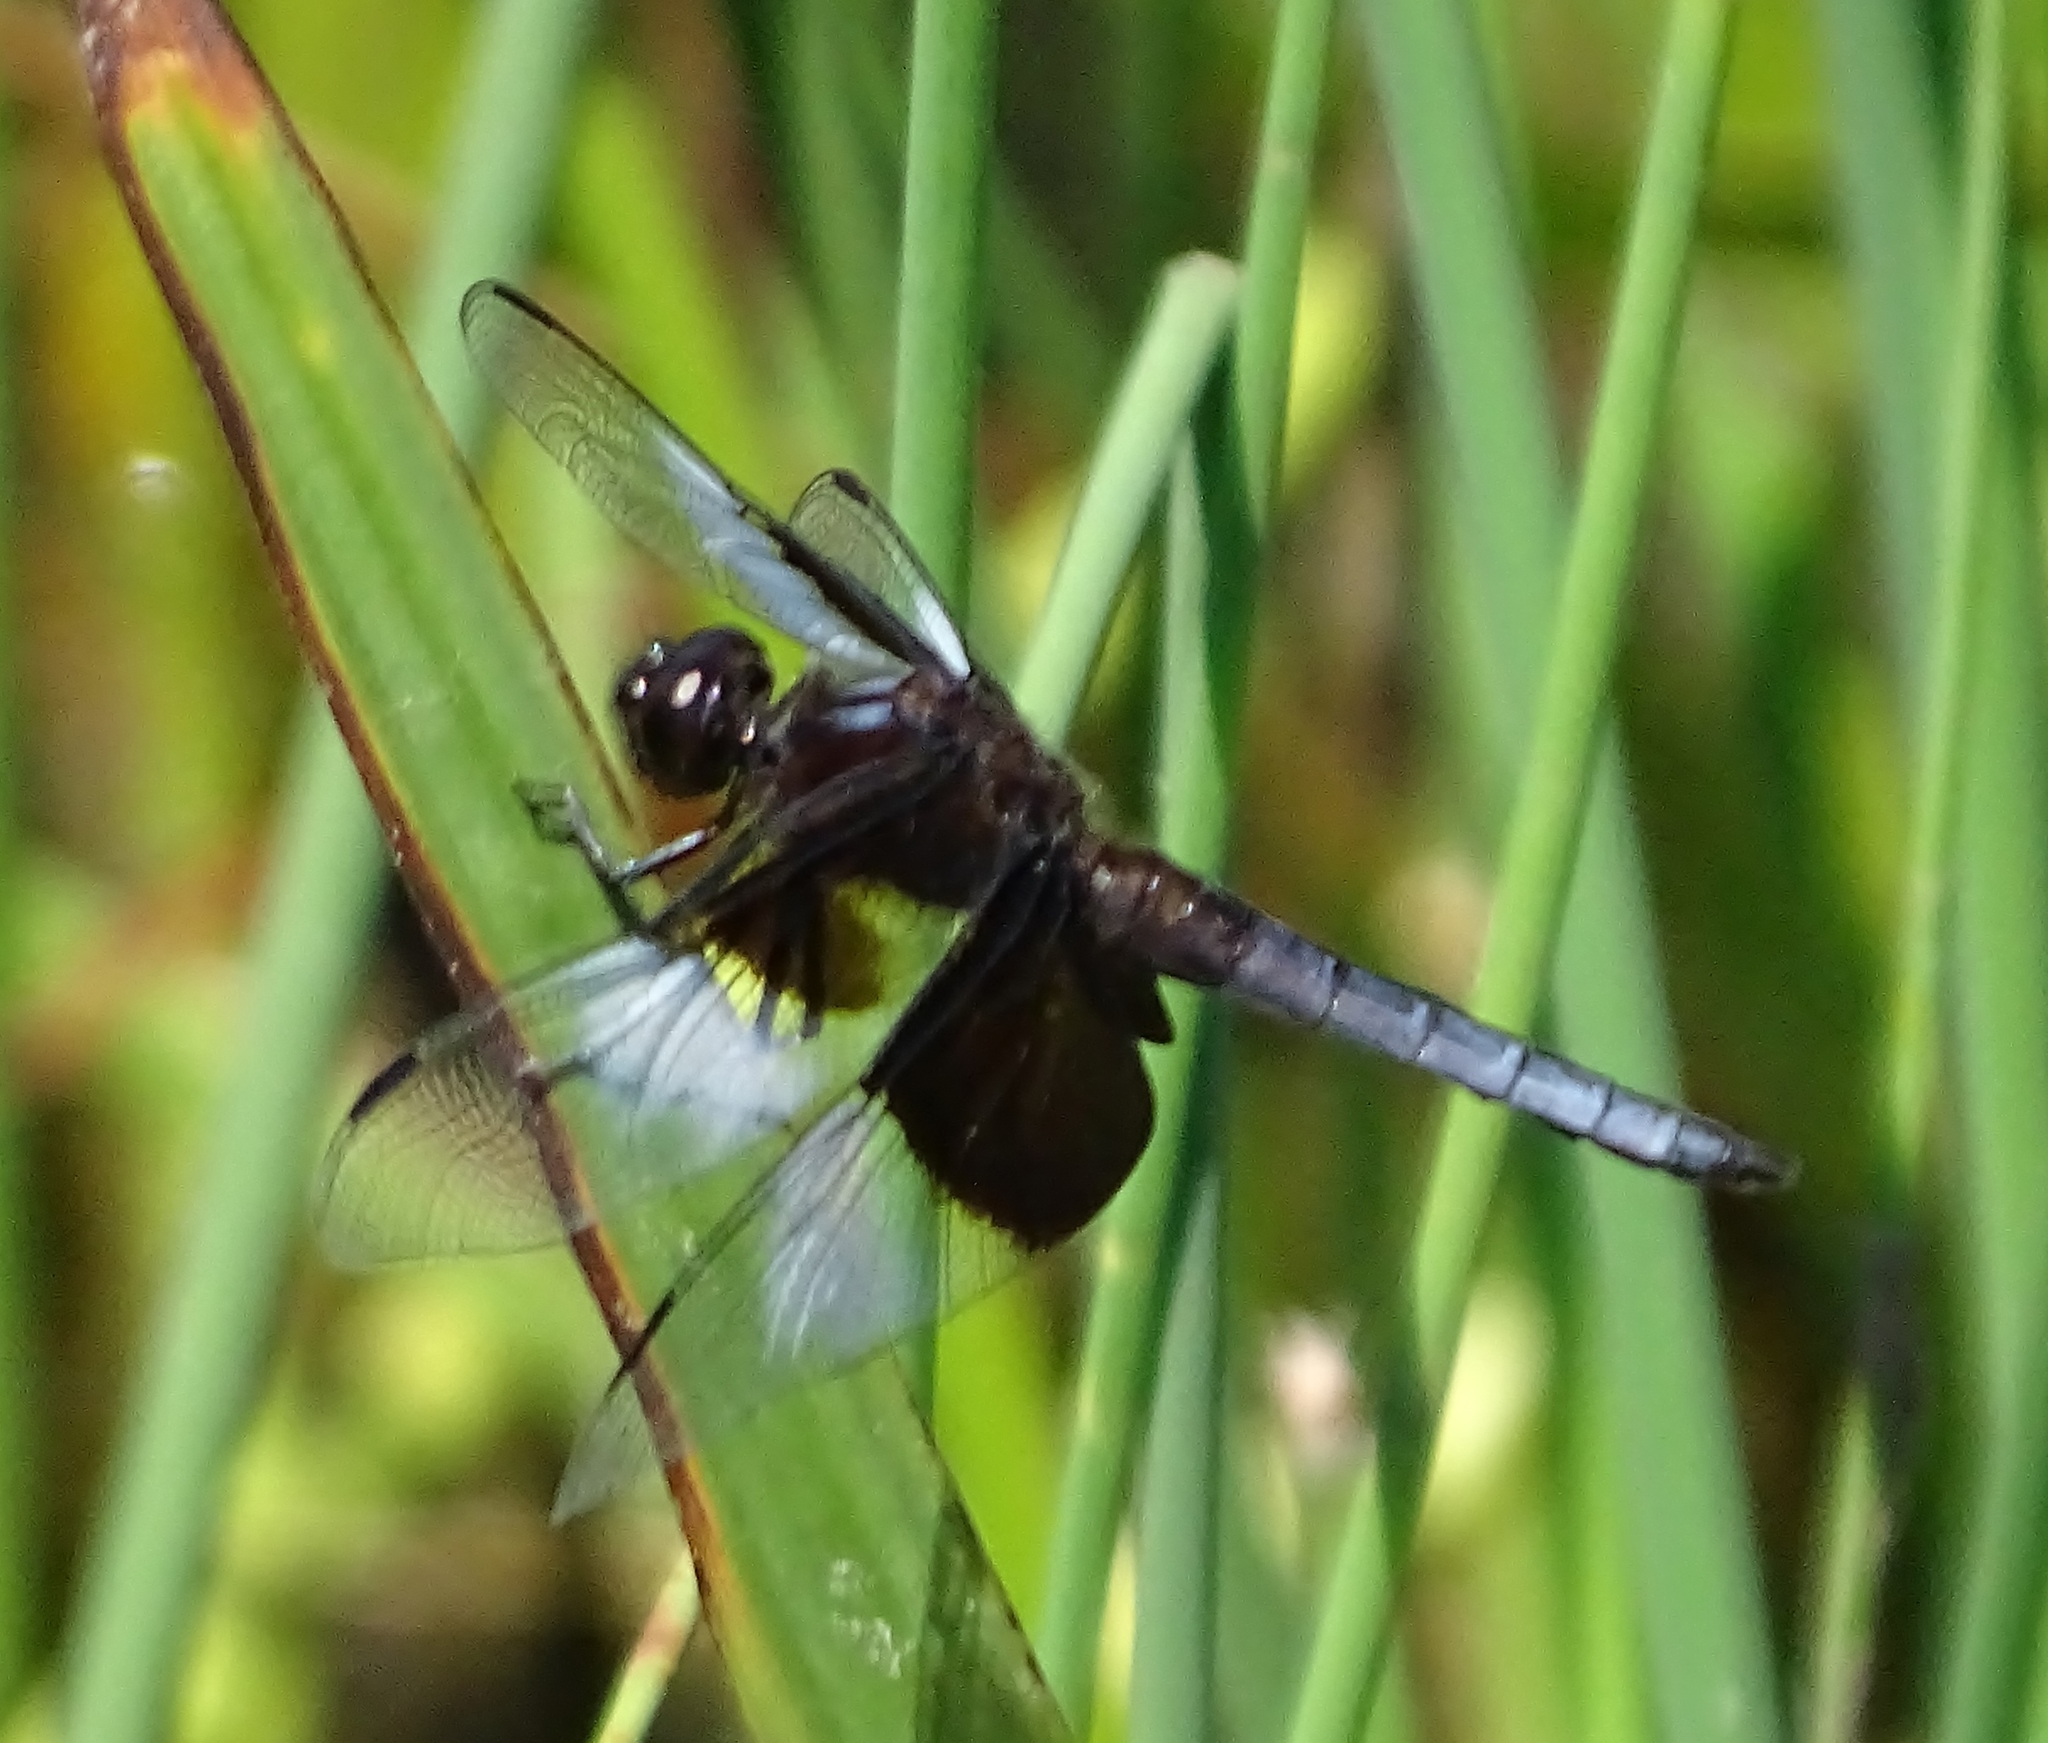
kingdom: Animalia
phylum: Arthropoda
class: Insecta
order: Odonata
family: Libellulidae
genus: Libellula
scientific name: Libellula luctuosa
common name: Widow skimmer
